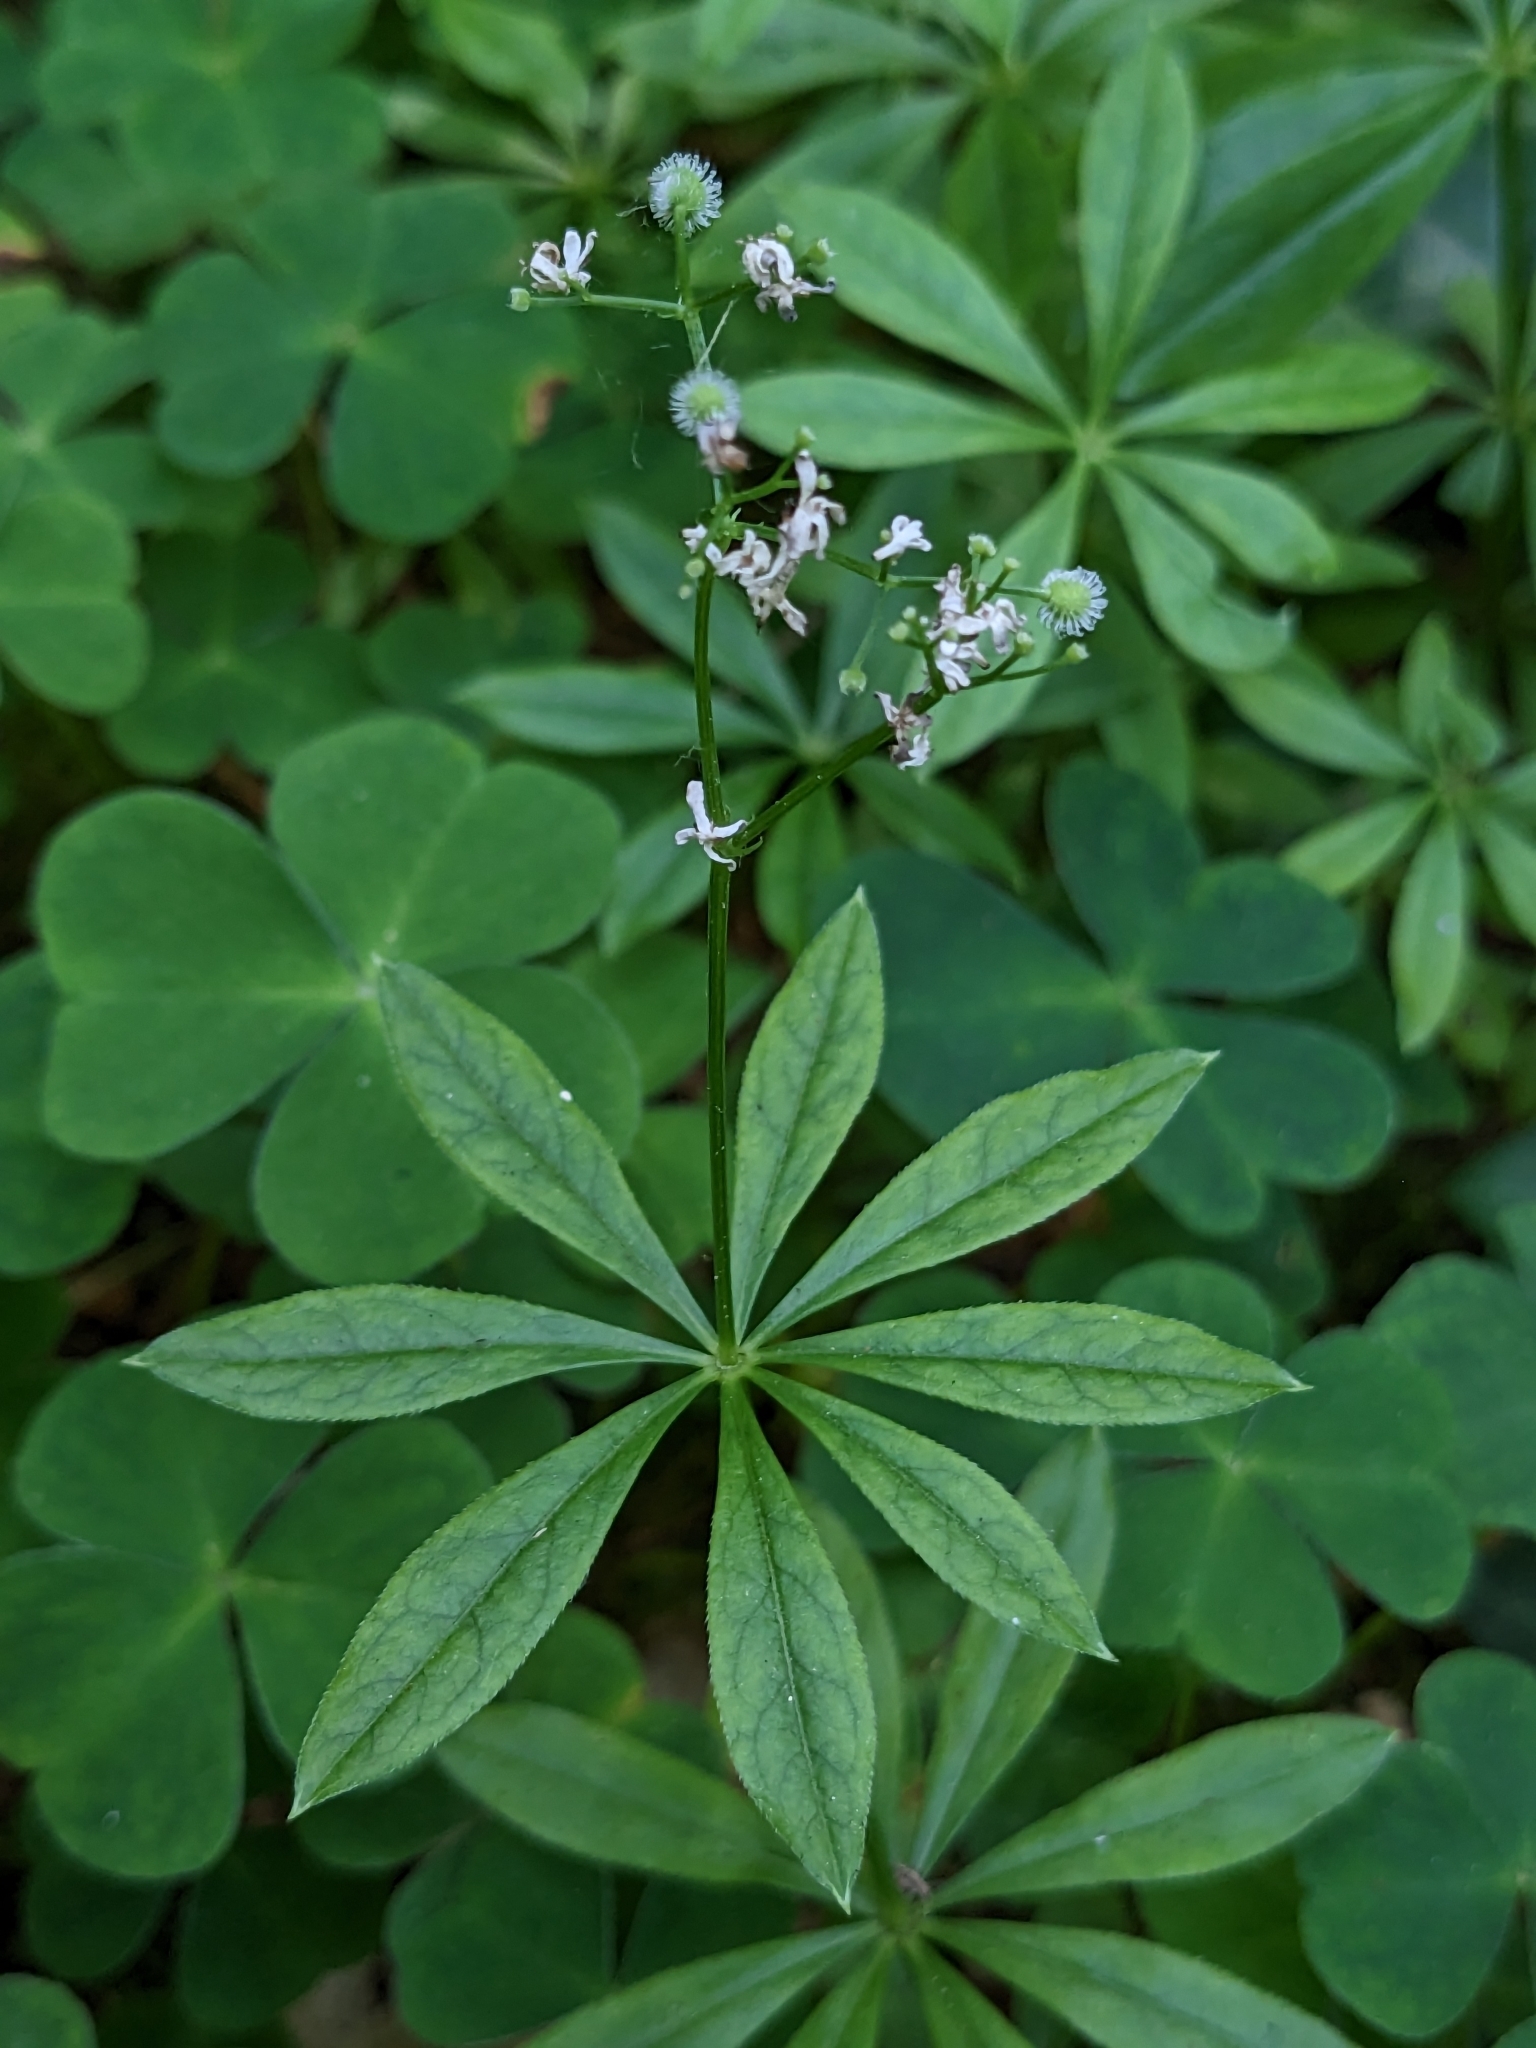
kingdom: Plantae
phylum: Tracheophyta
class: Magnoliopsida
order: Gentianales
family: Rubiaceae
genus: Galium
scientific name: Galium odoratum
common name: Sweet woodruff
